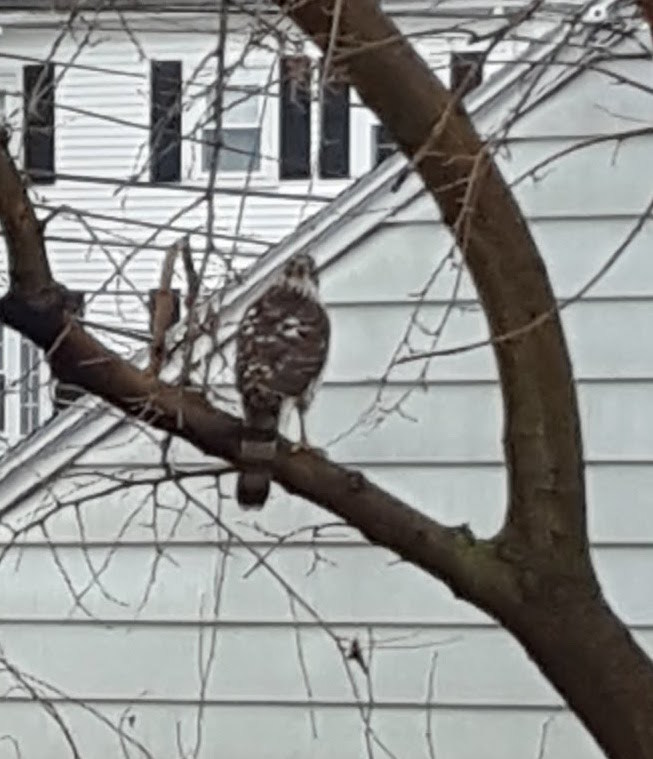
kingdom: Animalia
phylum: Chordata
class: Aves
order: Accipitriformes
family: Accipitridae
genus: Accipiter
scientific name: Accipiter cooperii
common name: Cooper's hawk
